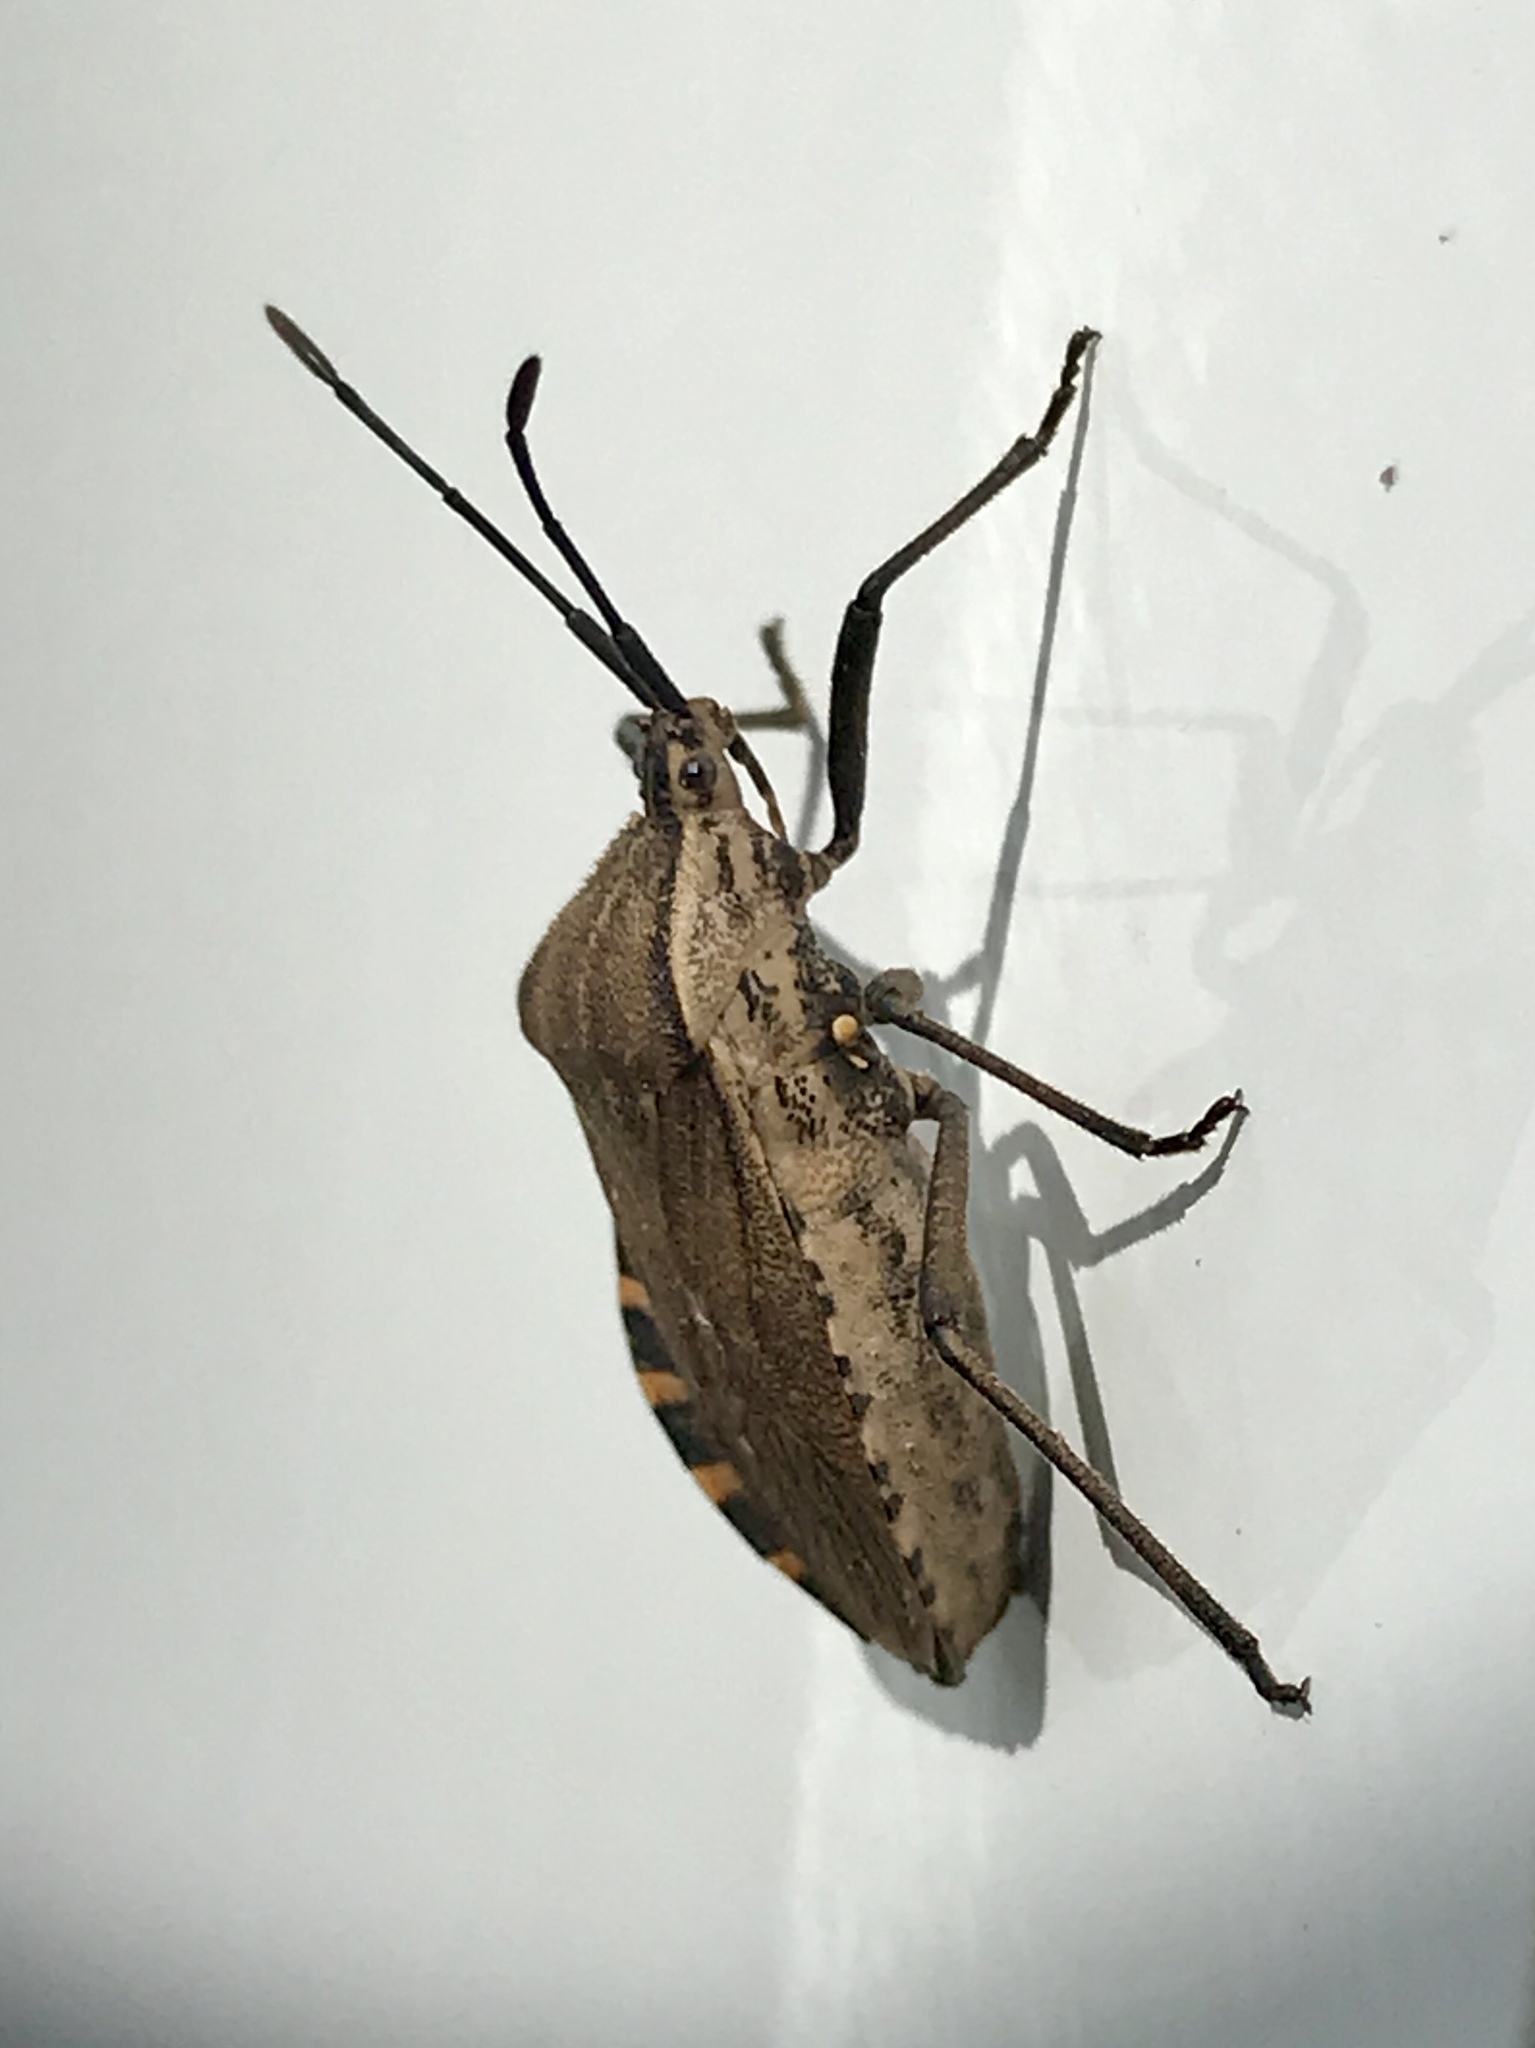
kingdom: Animalia
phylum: Arthropoda
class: Insecta
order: Hemiptera
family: Coreidae
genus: Cimolus
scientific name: Cimolus vitticeps
